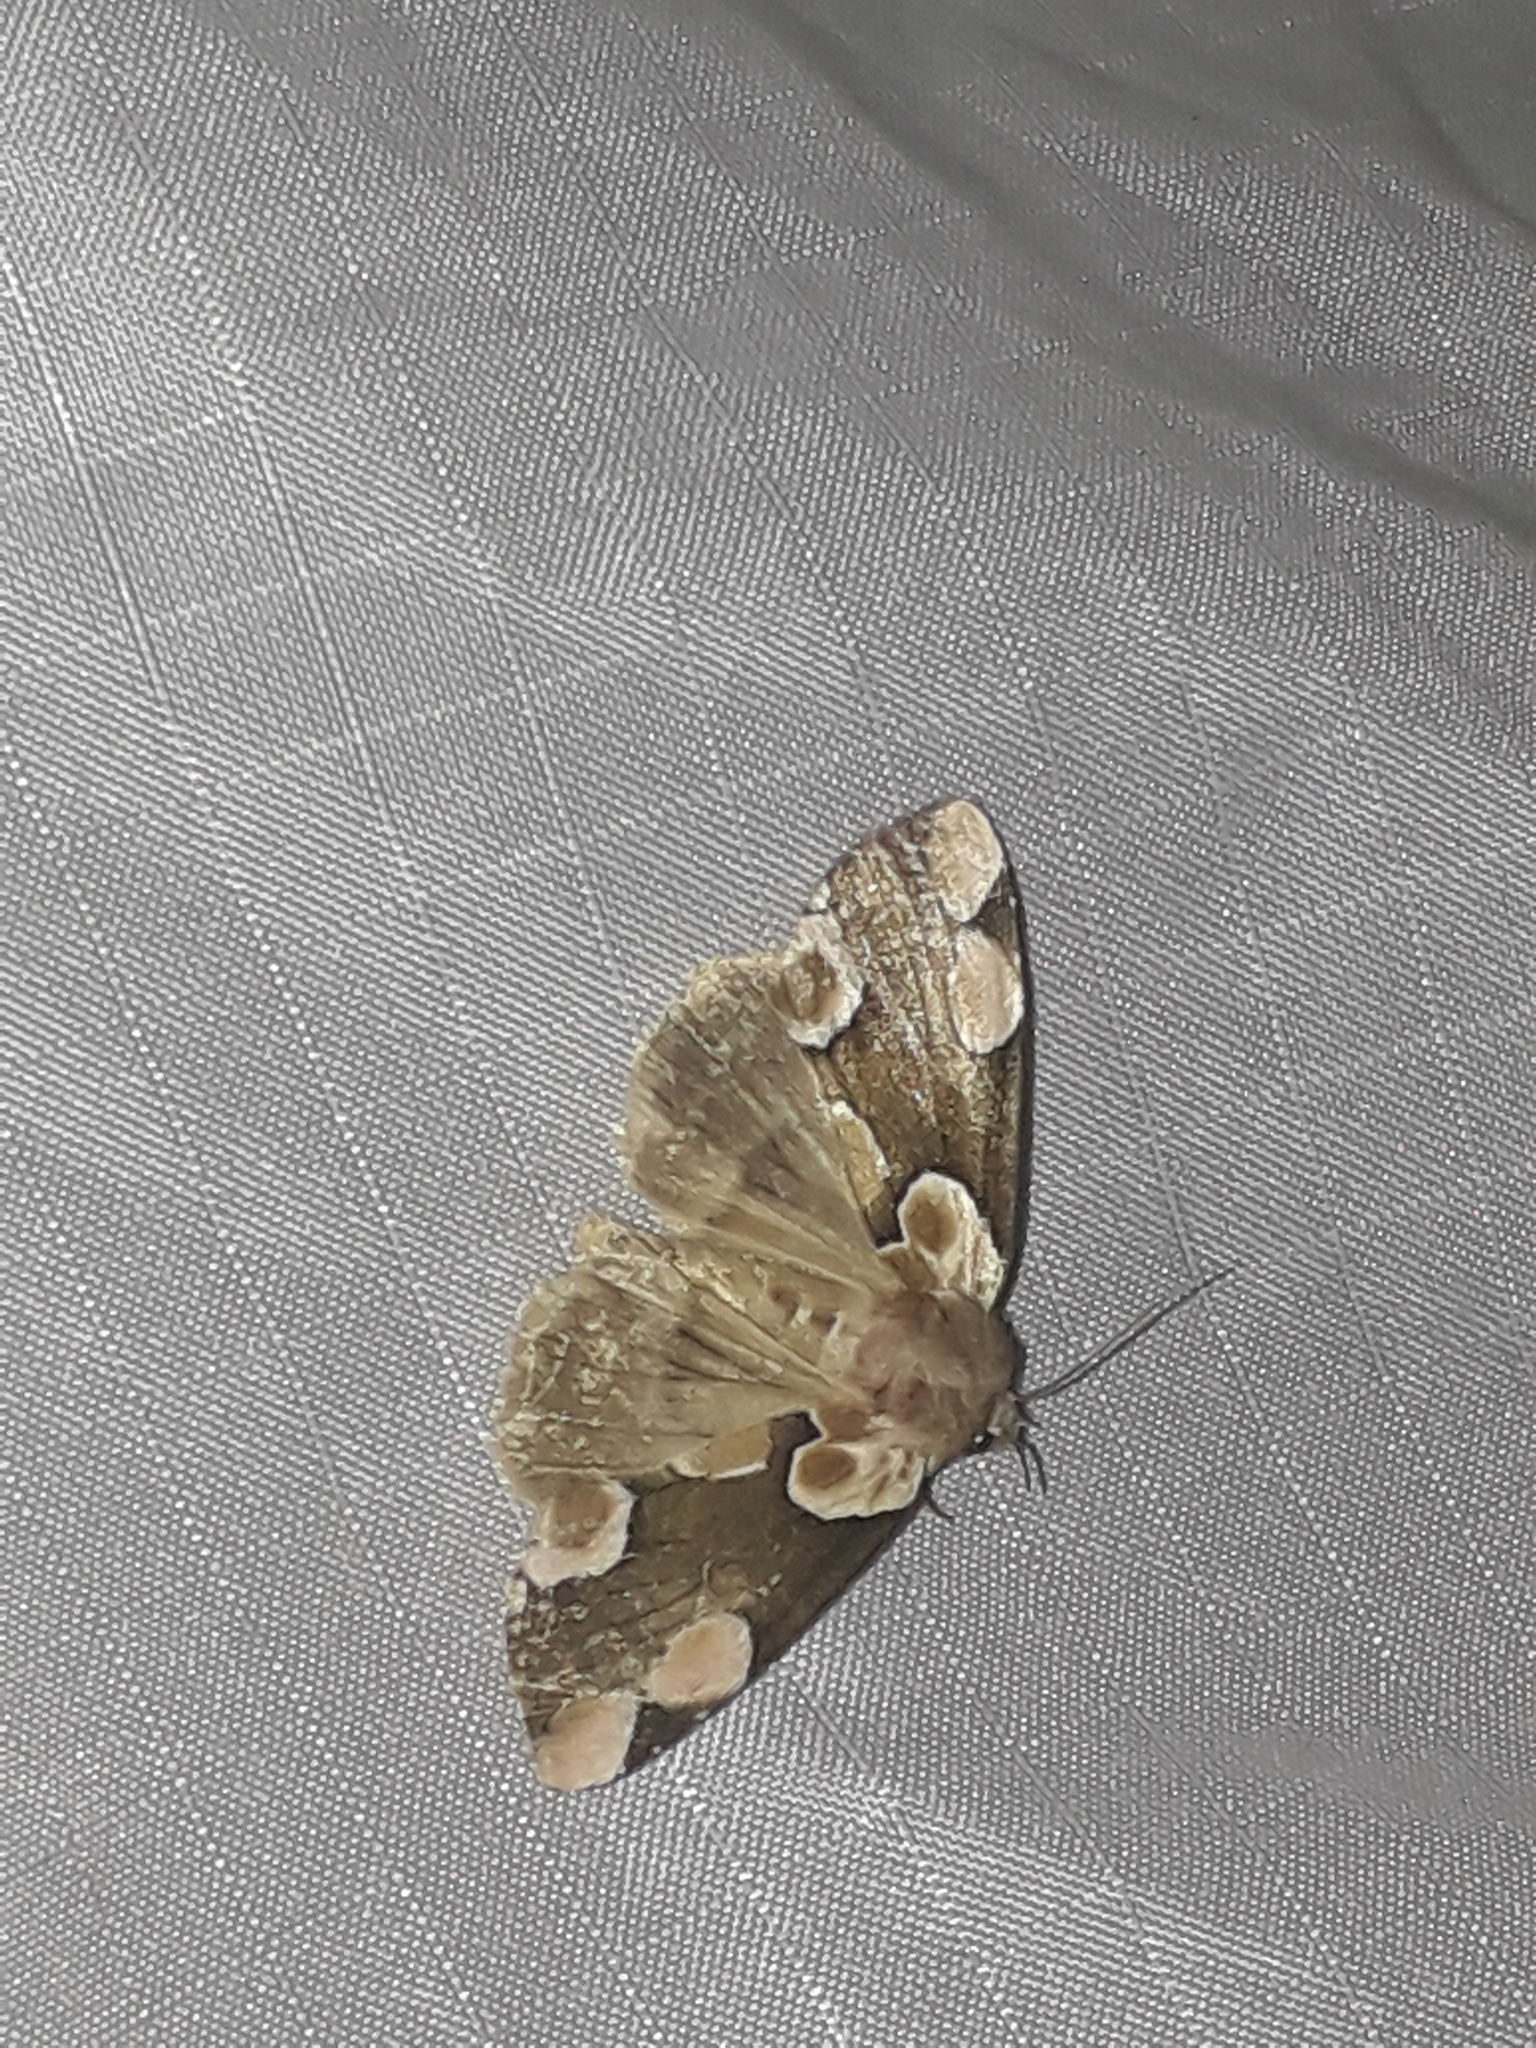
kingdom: Animalia
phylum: Arthropoda
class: Insecta
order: Lepidoptera
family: Drepanidae
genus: Thyatira
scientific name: Thyatira batis
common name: Peach blossom
